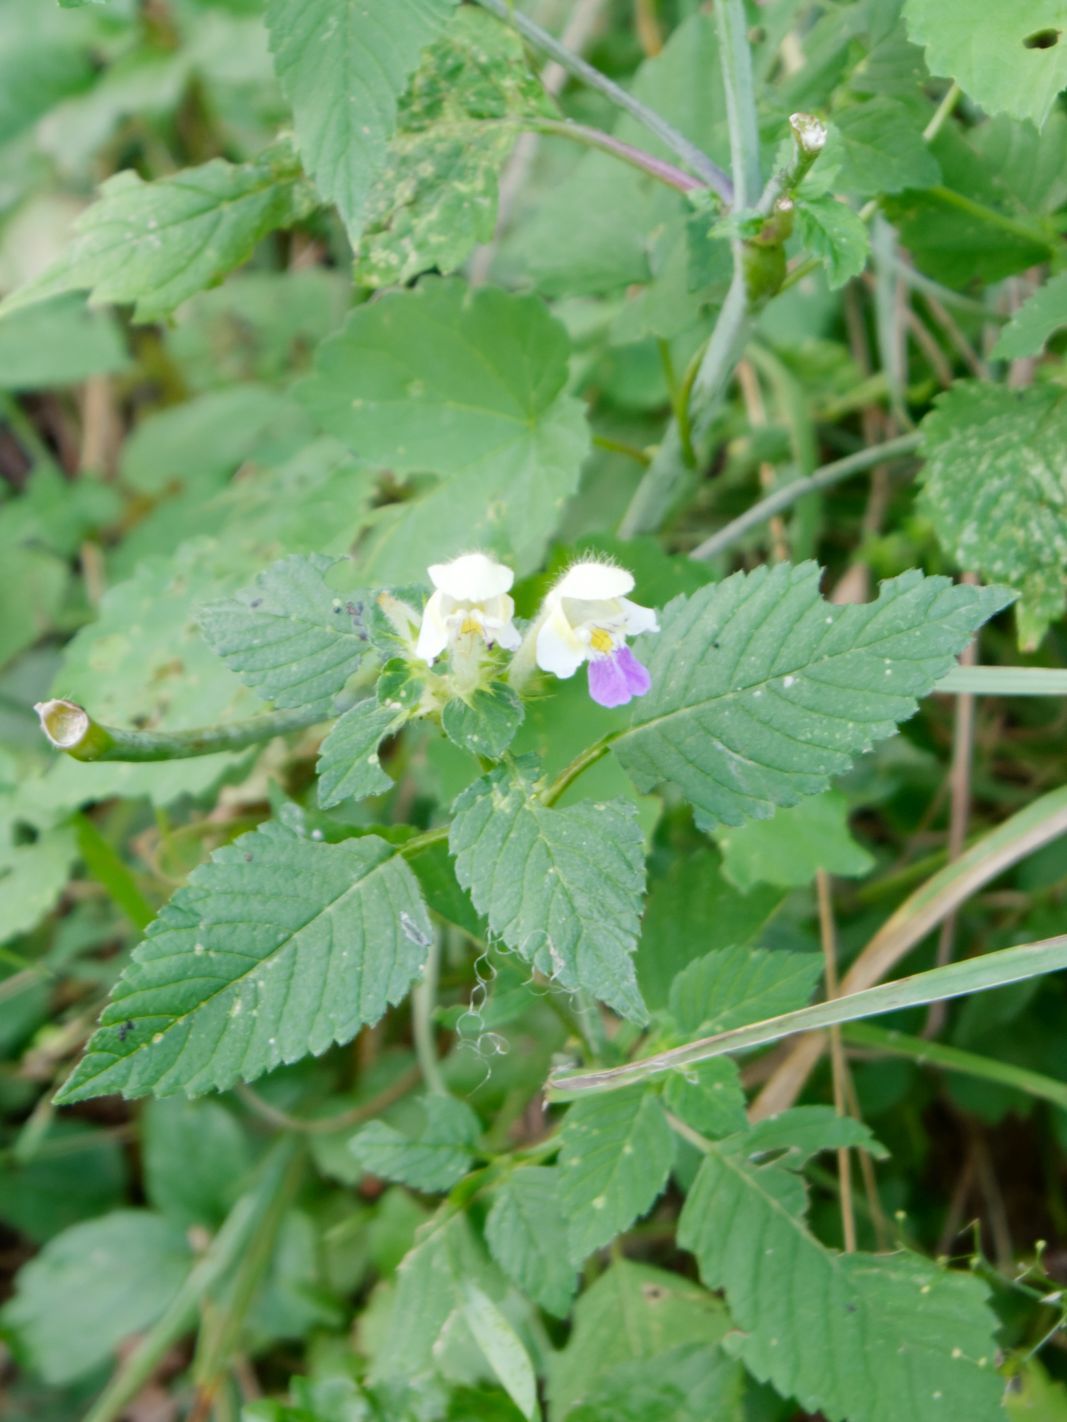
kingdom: Plantae
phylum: Tracheophyta
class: Magnoliopsida
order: Lamiales
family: Lamiaceae
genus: Galeopsis
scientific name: Galeopsis speciosa
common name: Large-flowered hemp-nettle
